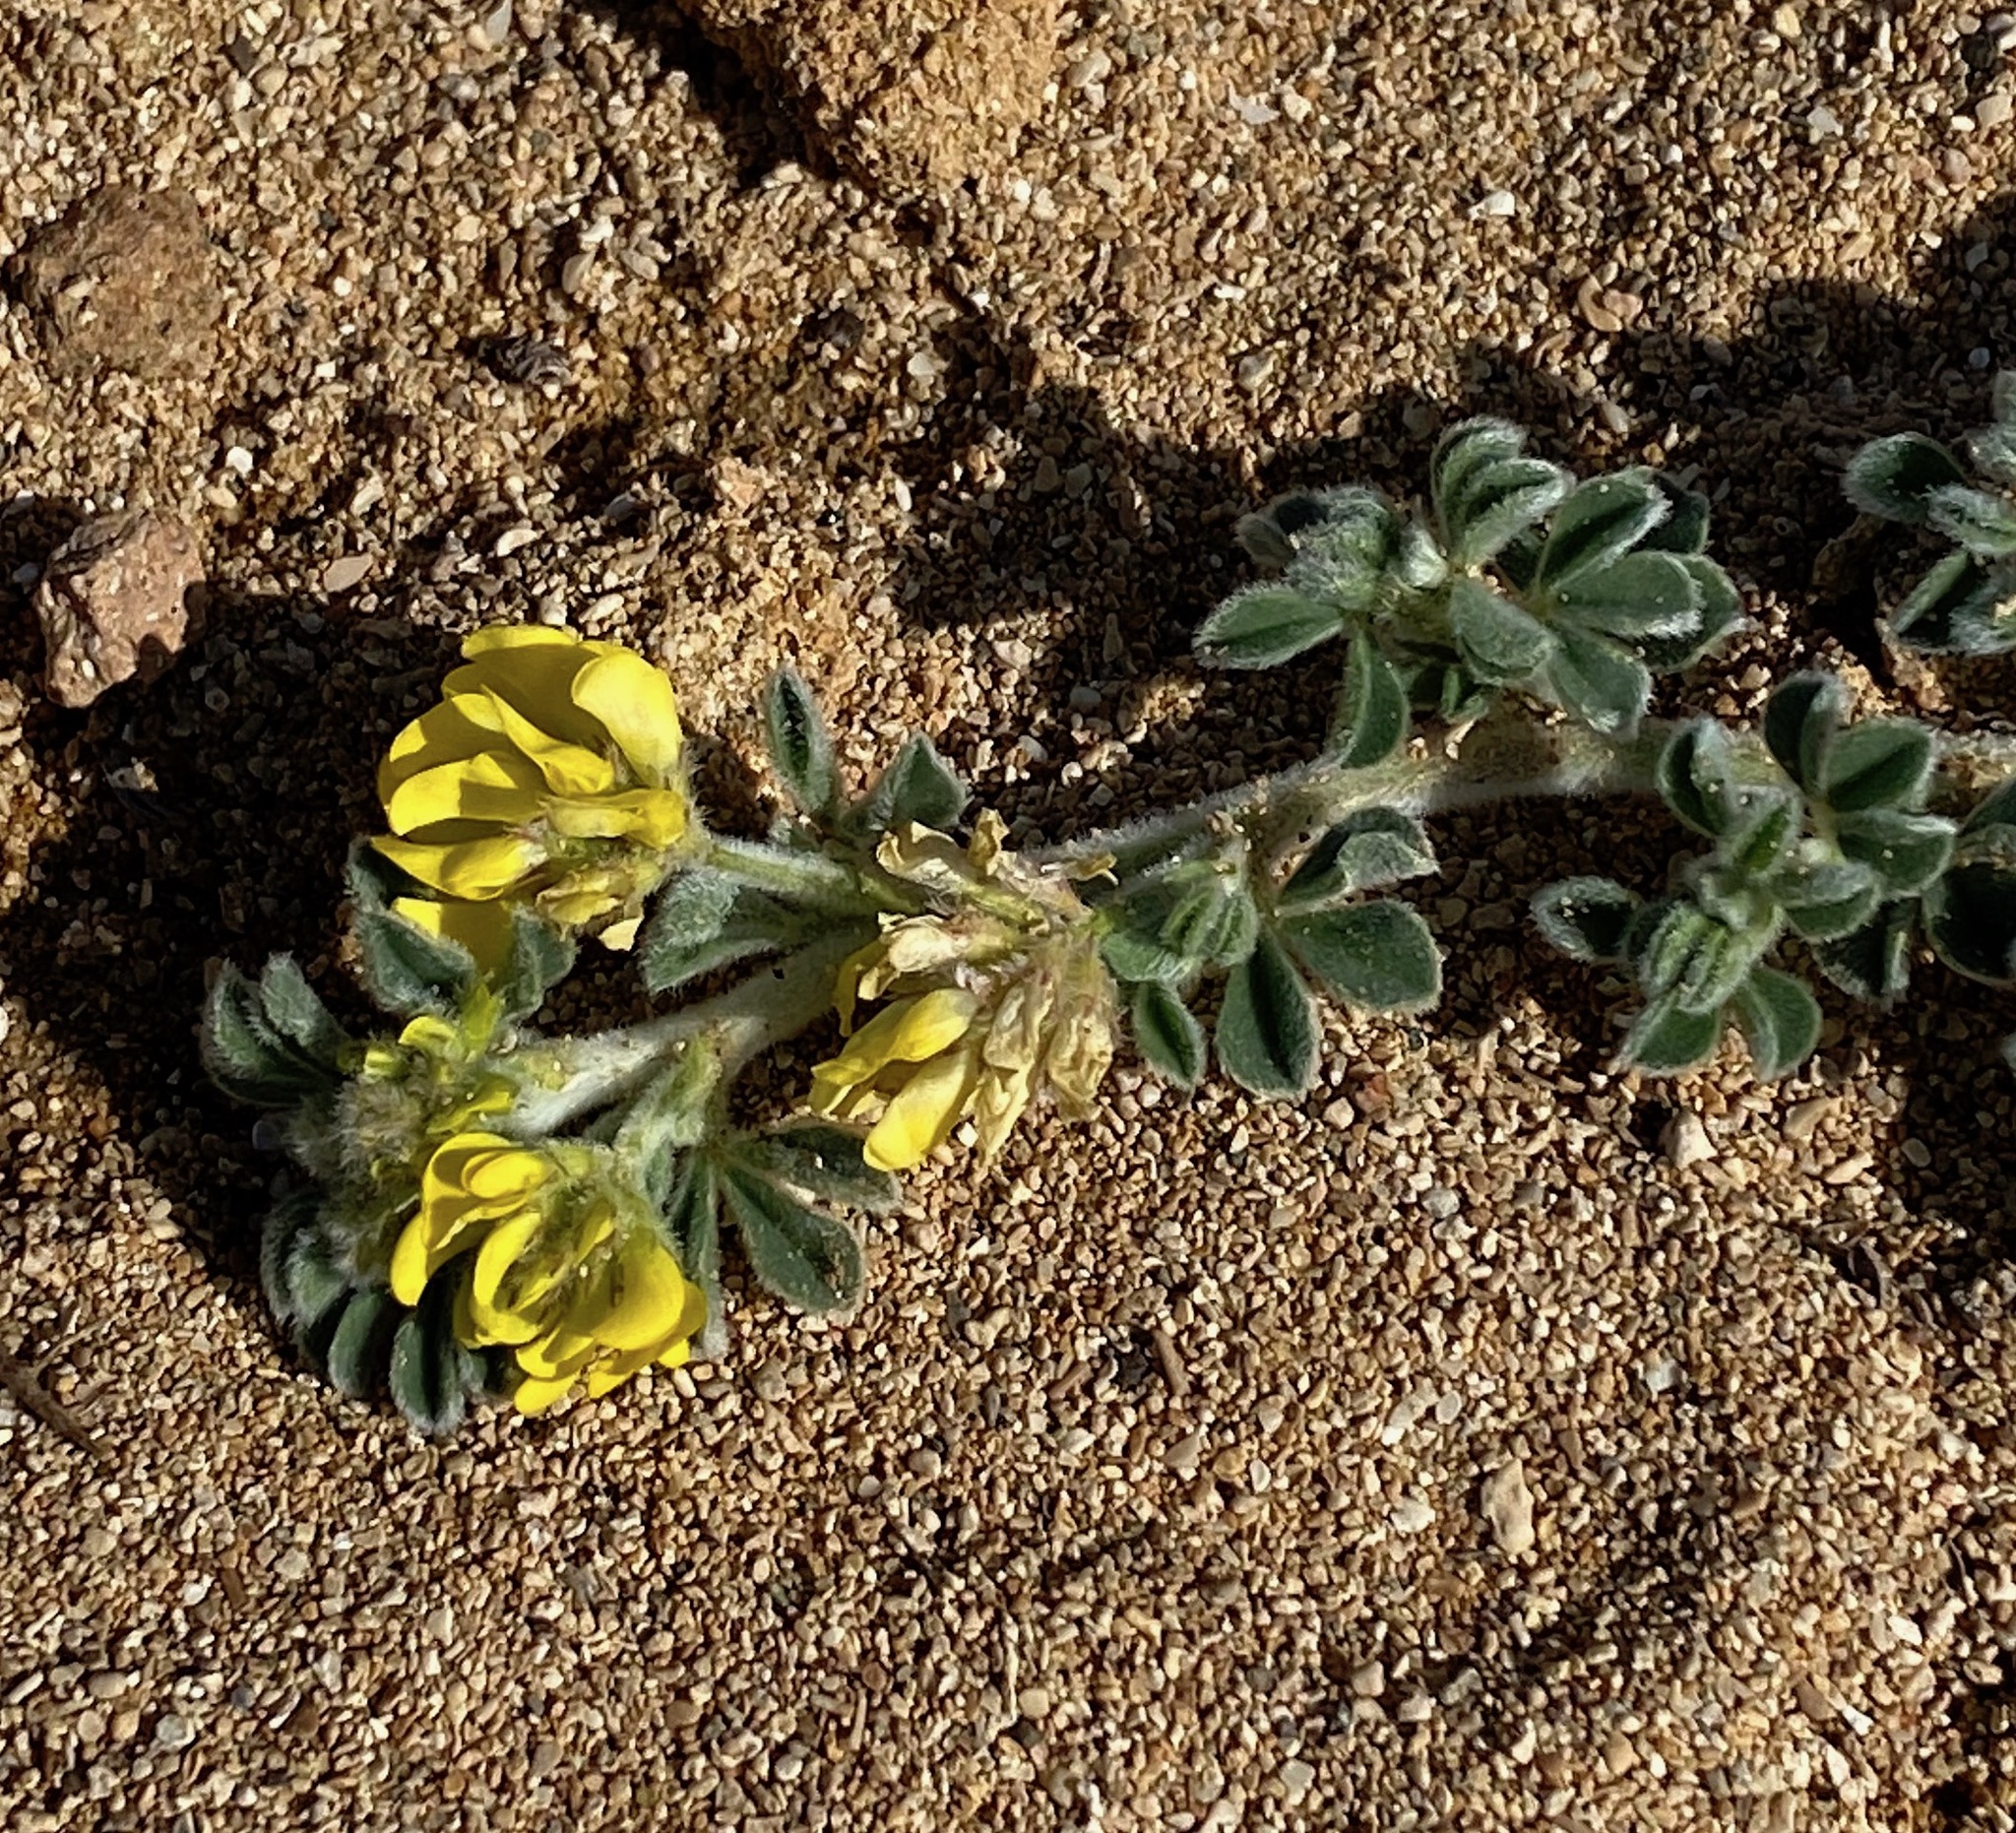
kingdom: Plantae
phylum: Tracheophyta
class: Magnoliopsida
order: Fabales
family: Fabaceae
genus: Medicago
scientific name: Medicago marina
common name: Sea medick
